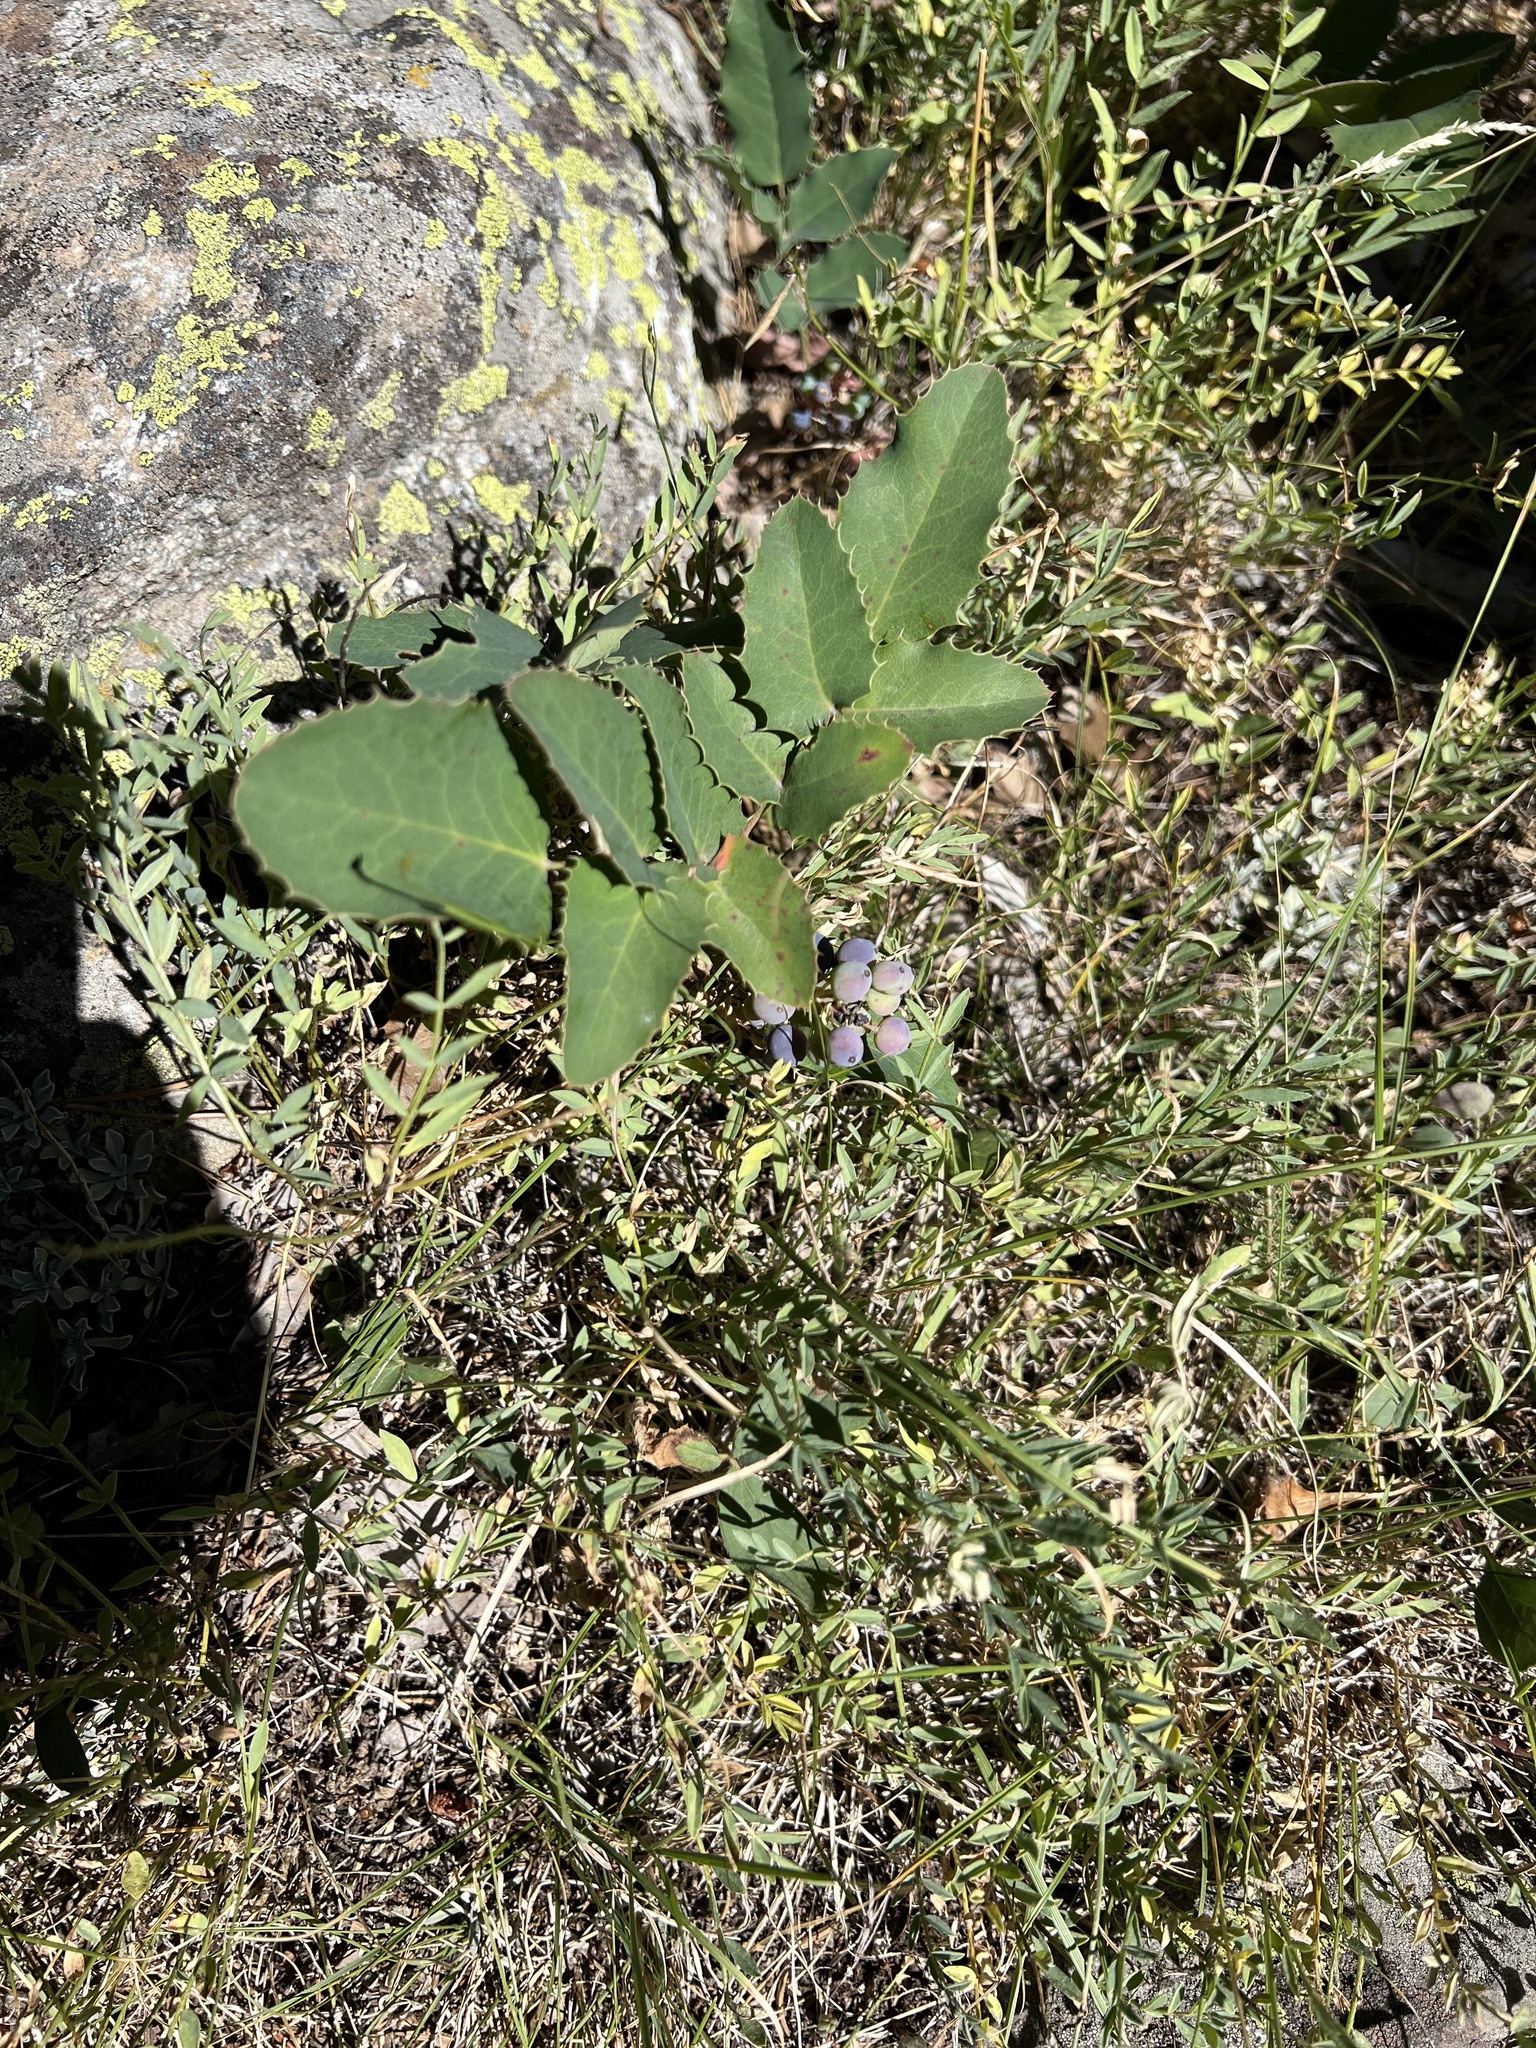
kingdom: Plantae
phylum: Tracheophyta
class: Magnoliopsida
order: Ranunculales
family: Berberidaceae
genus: Mahonia
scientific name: Mahonia repens
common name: Creeping oregon-grape
